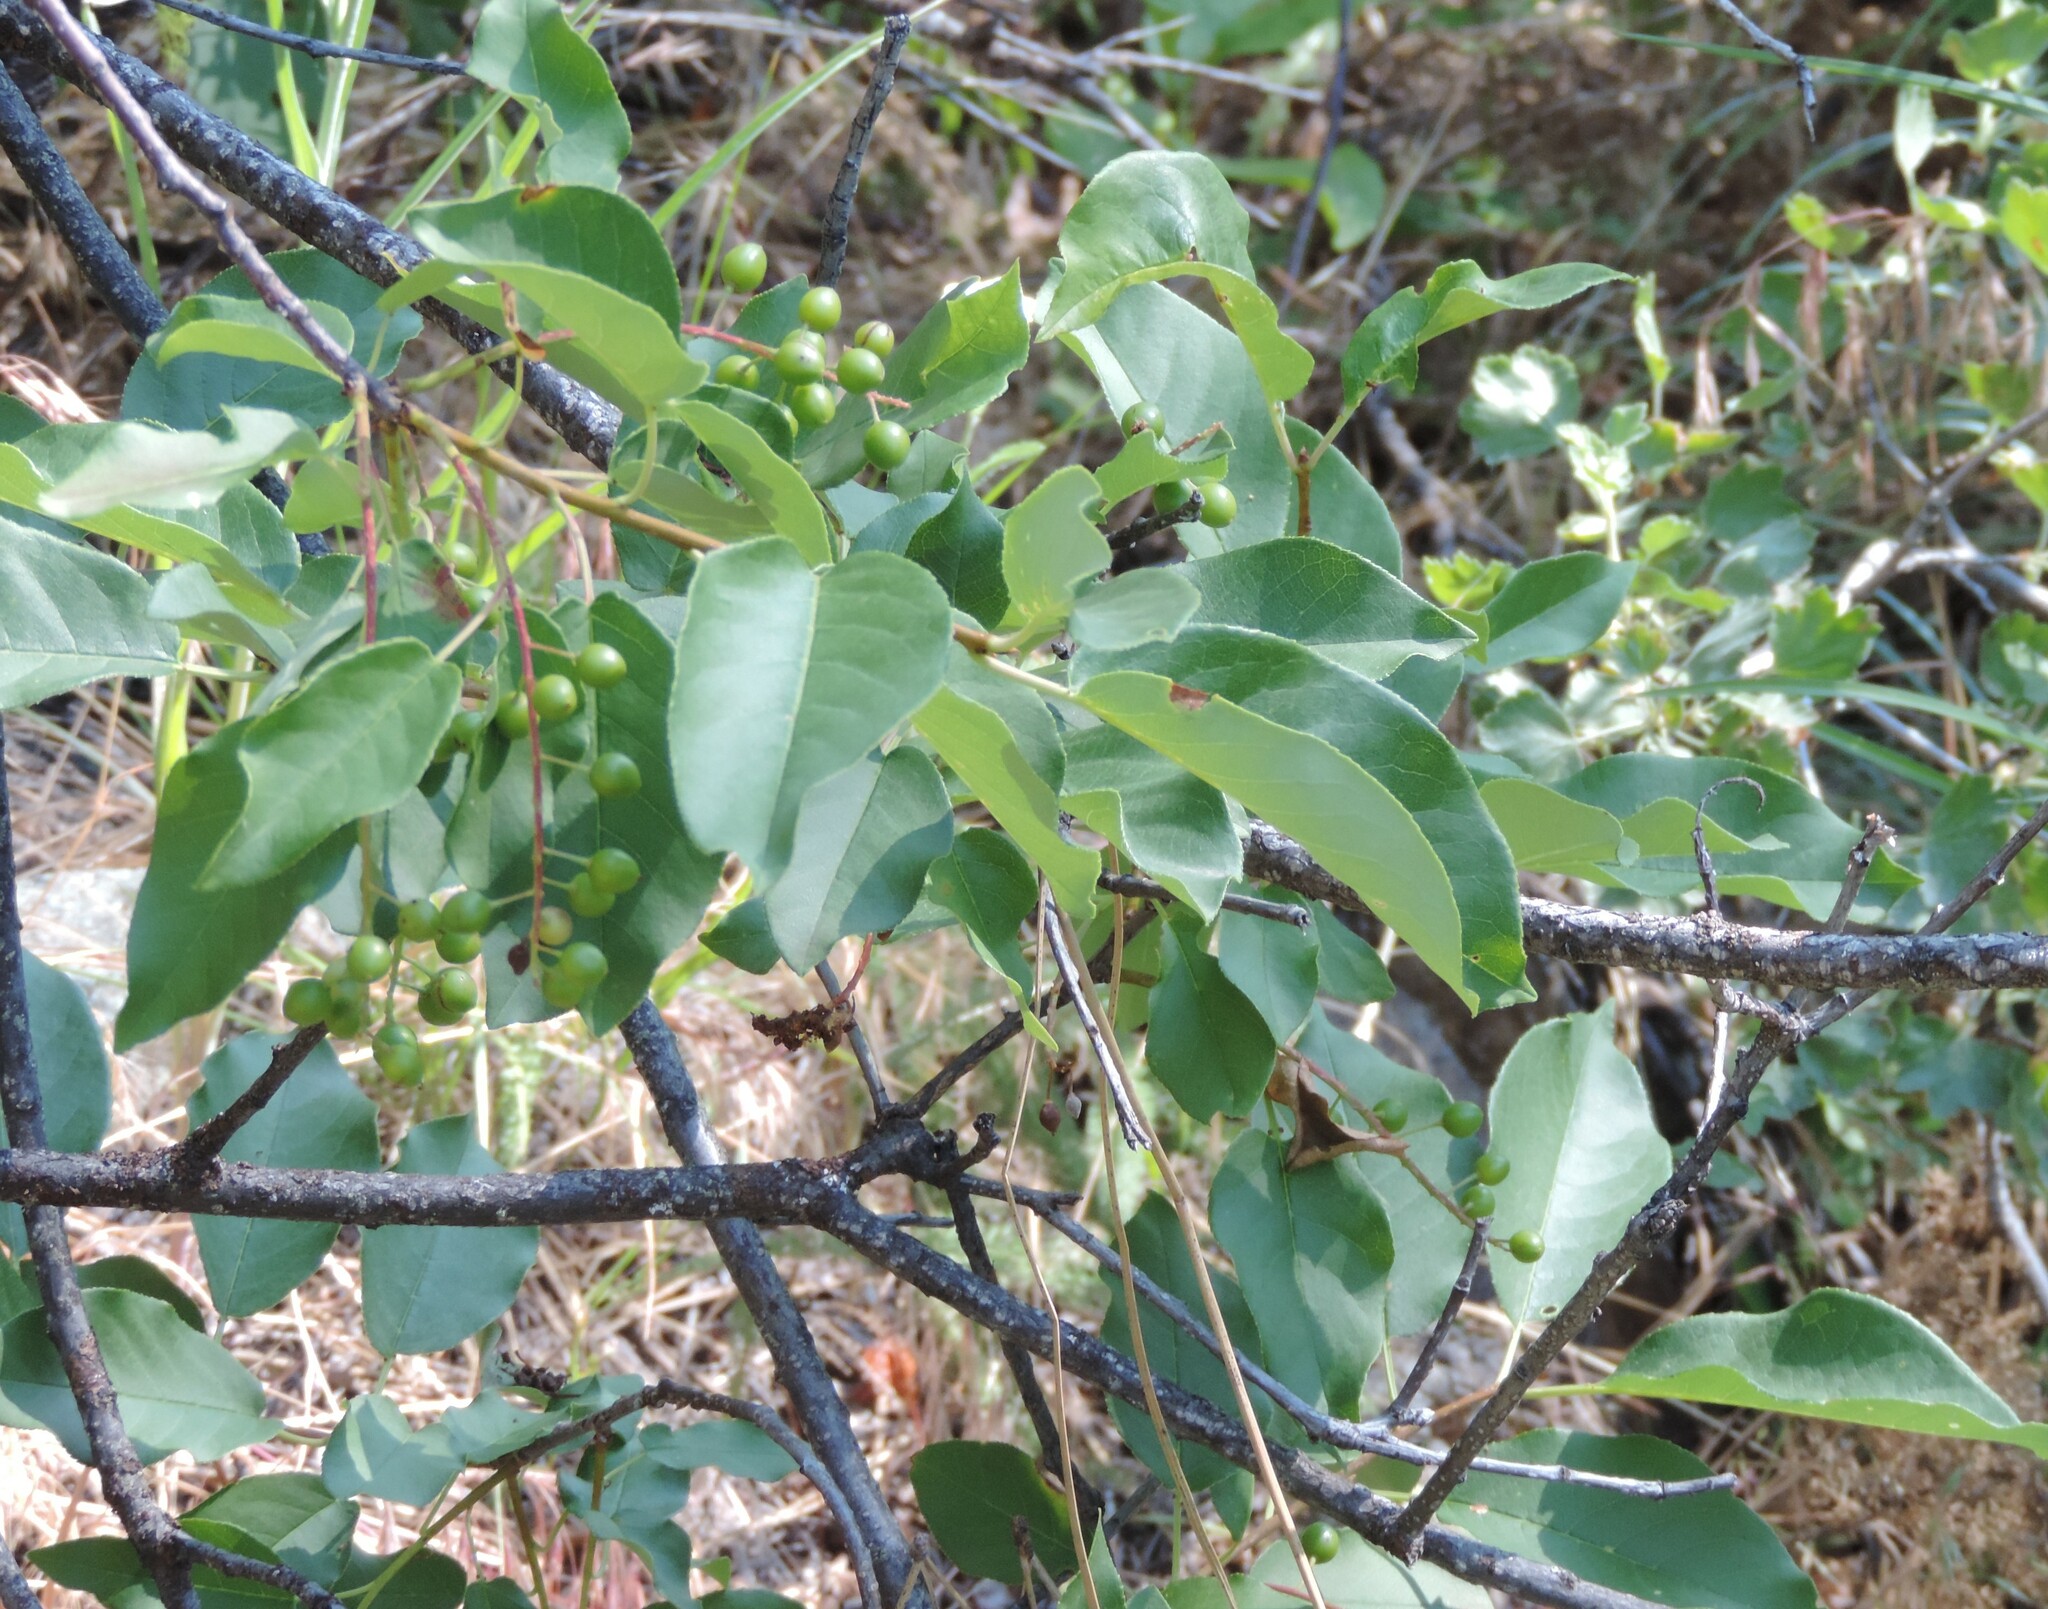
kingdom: Plantae
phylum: Tracheophyta
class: Magnoliopsida
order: Rosales
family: Rosaceae
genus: Prunus
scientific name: Prunus virginiana
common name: Chokecherry
